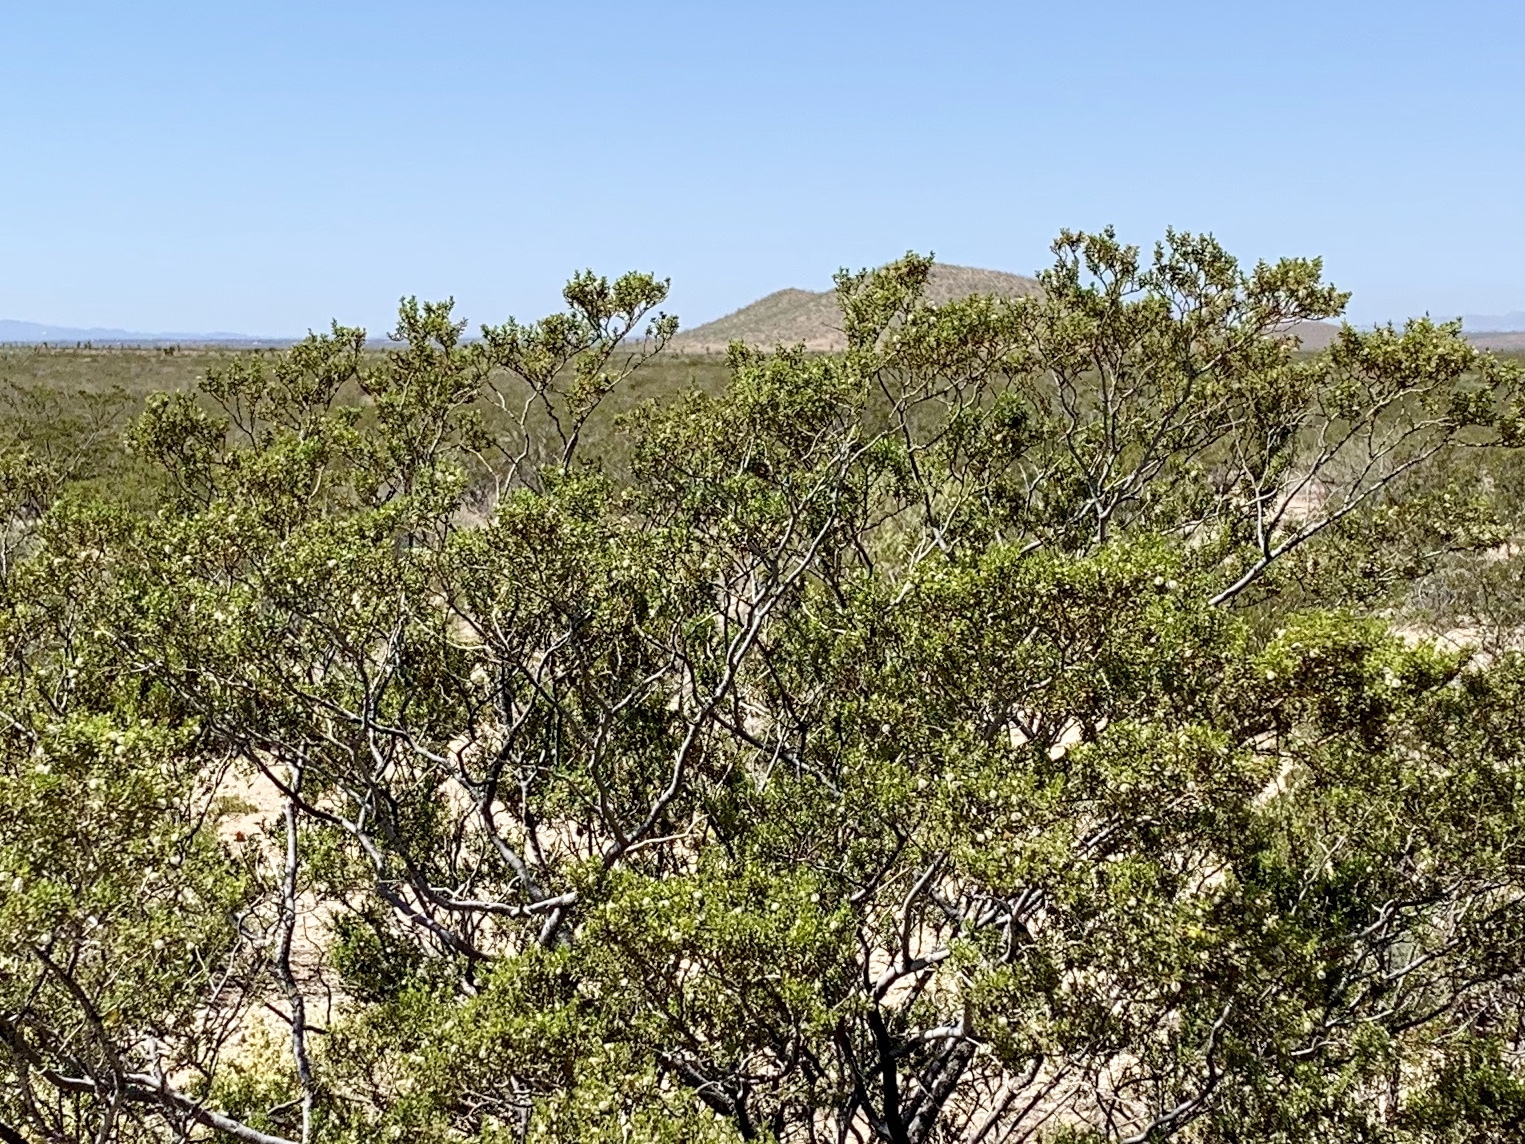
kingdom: Plantae
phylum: Tracheophyta
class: Magnoliopsida
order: Zygophyllales
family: Zygophyllaceae
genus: Larrea
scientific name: Larrea tridentata
